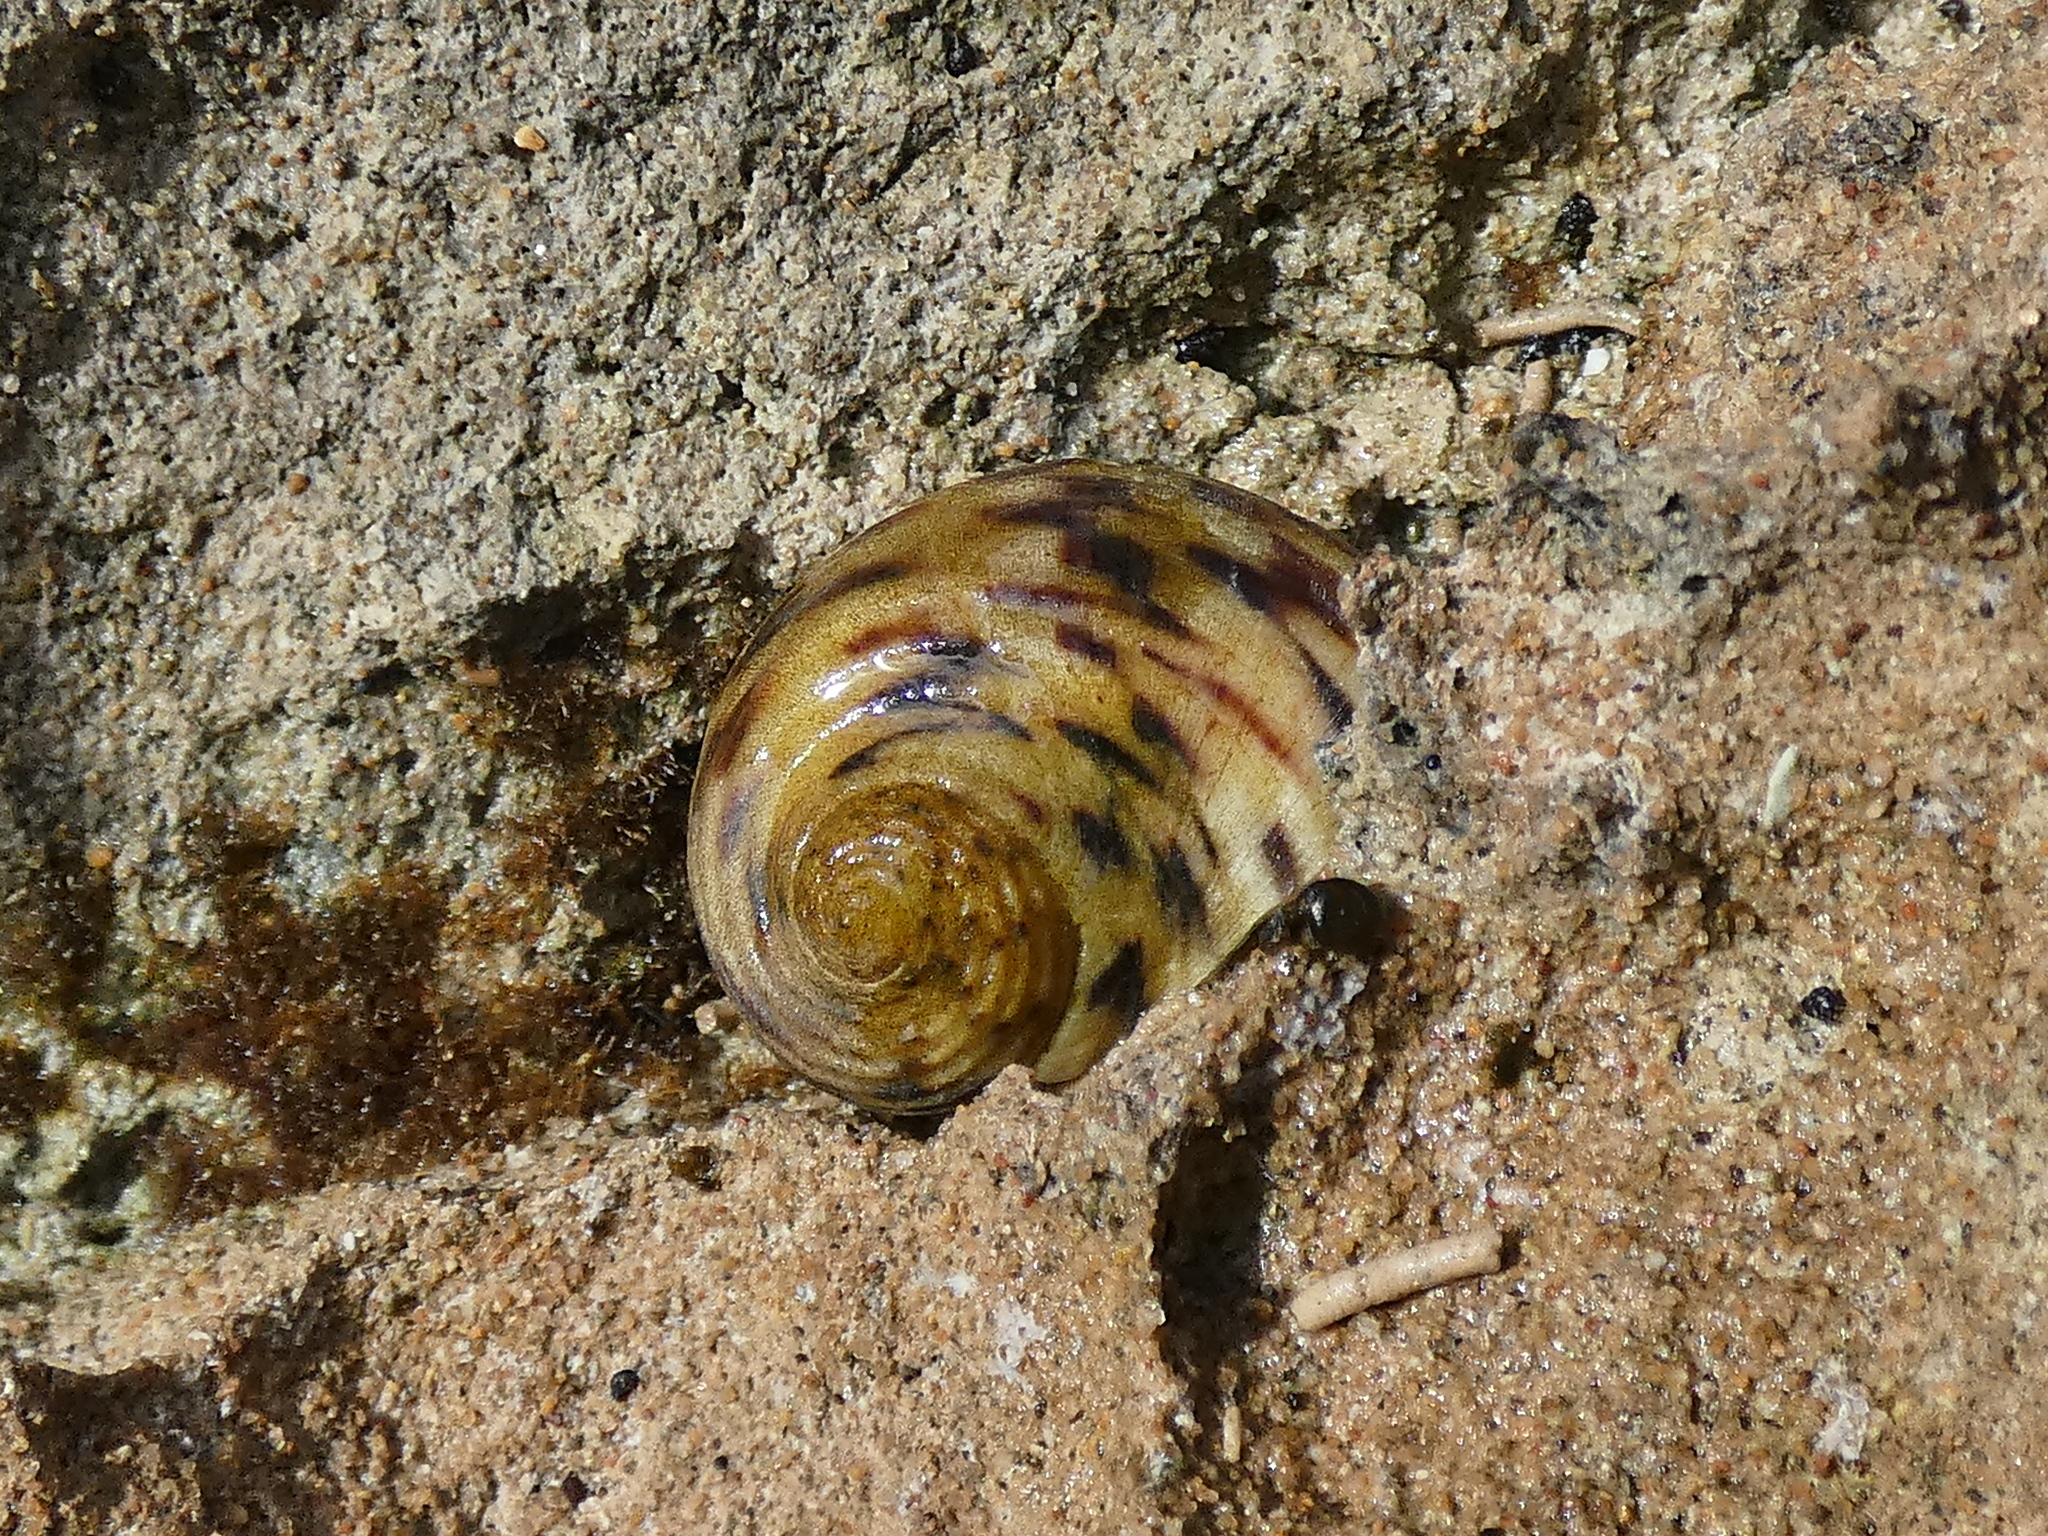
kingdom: Animalia
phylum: Mollusca
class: Gastropoda
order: Cycloneritida
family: Neritidae
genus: Nerita
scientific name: Nerita peloronta
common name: Bleeding tooth
